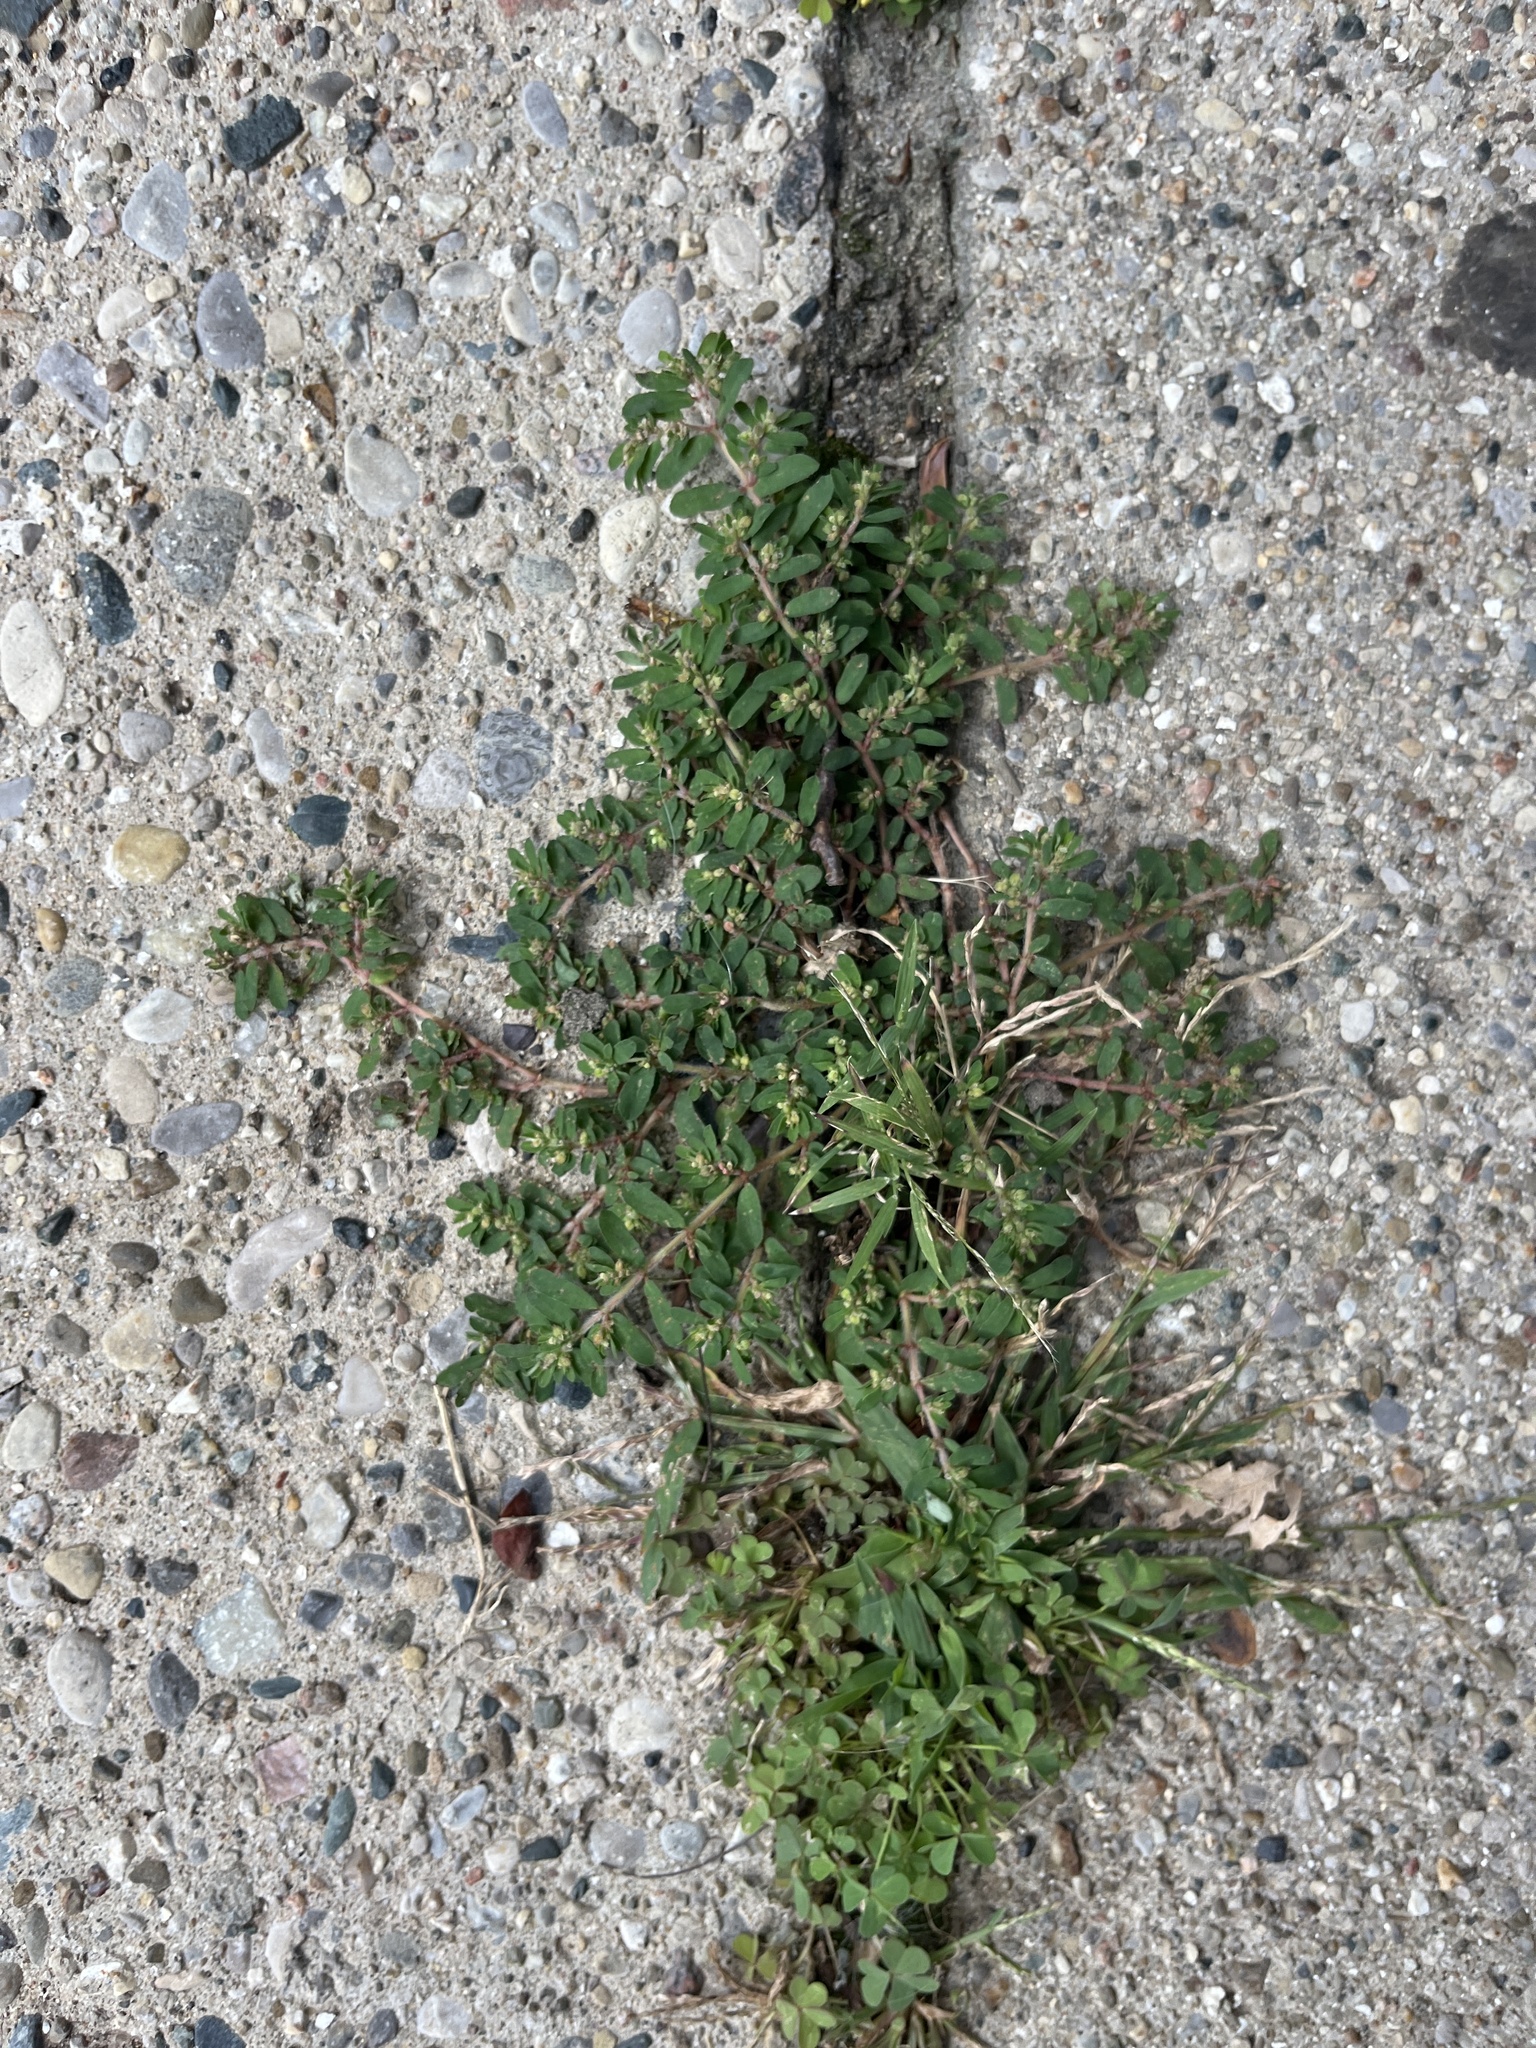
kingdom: Plantae
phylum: Tracheophyta
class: Magnoliopsida
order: Malpighiales
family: Euphorbiaceae
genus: Euphorbia
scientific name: Euphorbia maculata
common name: Spotted spurge
